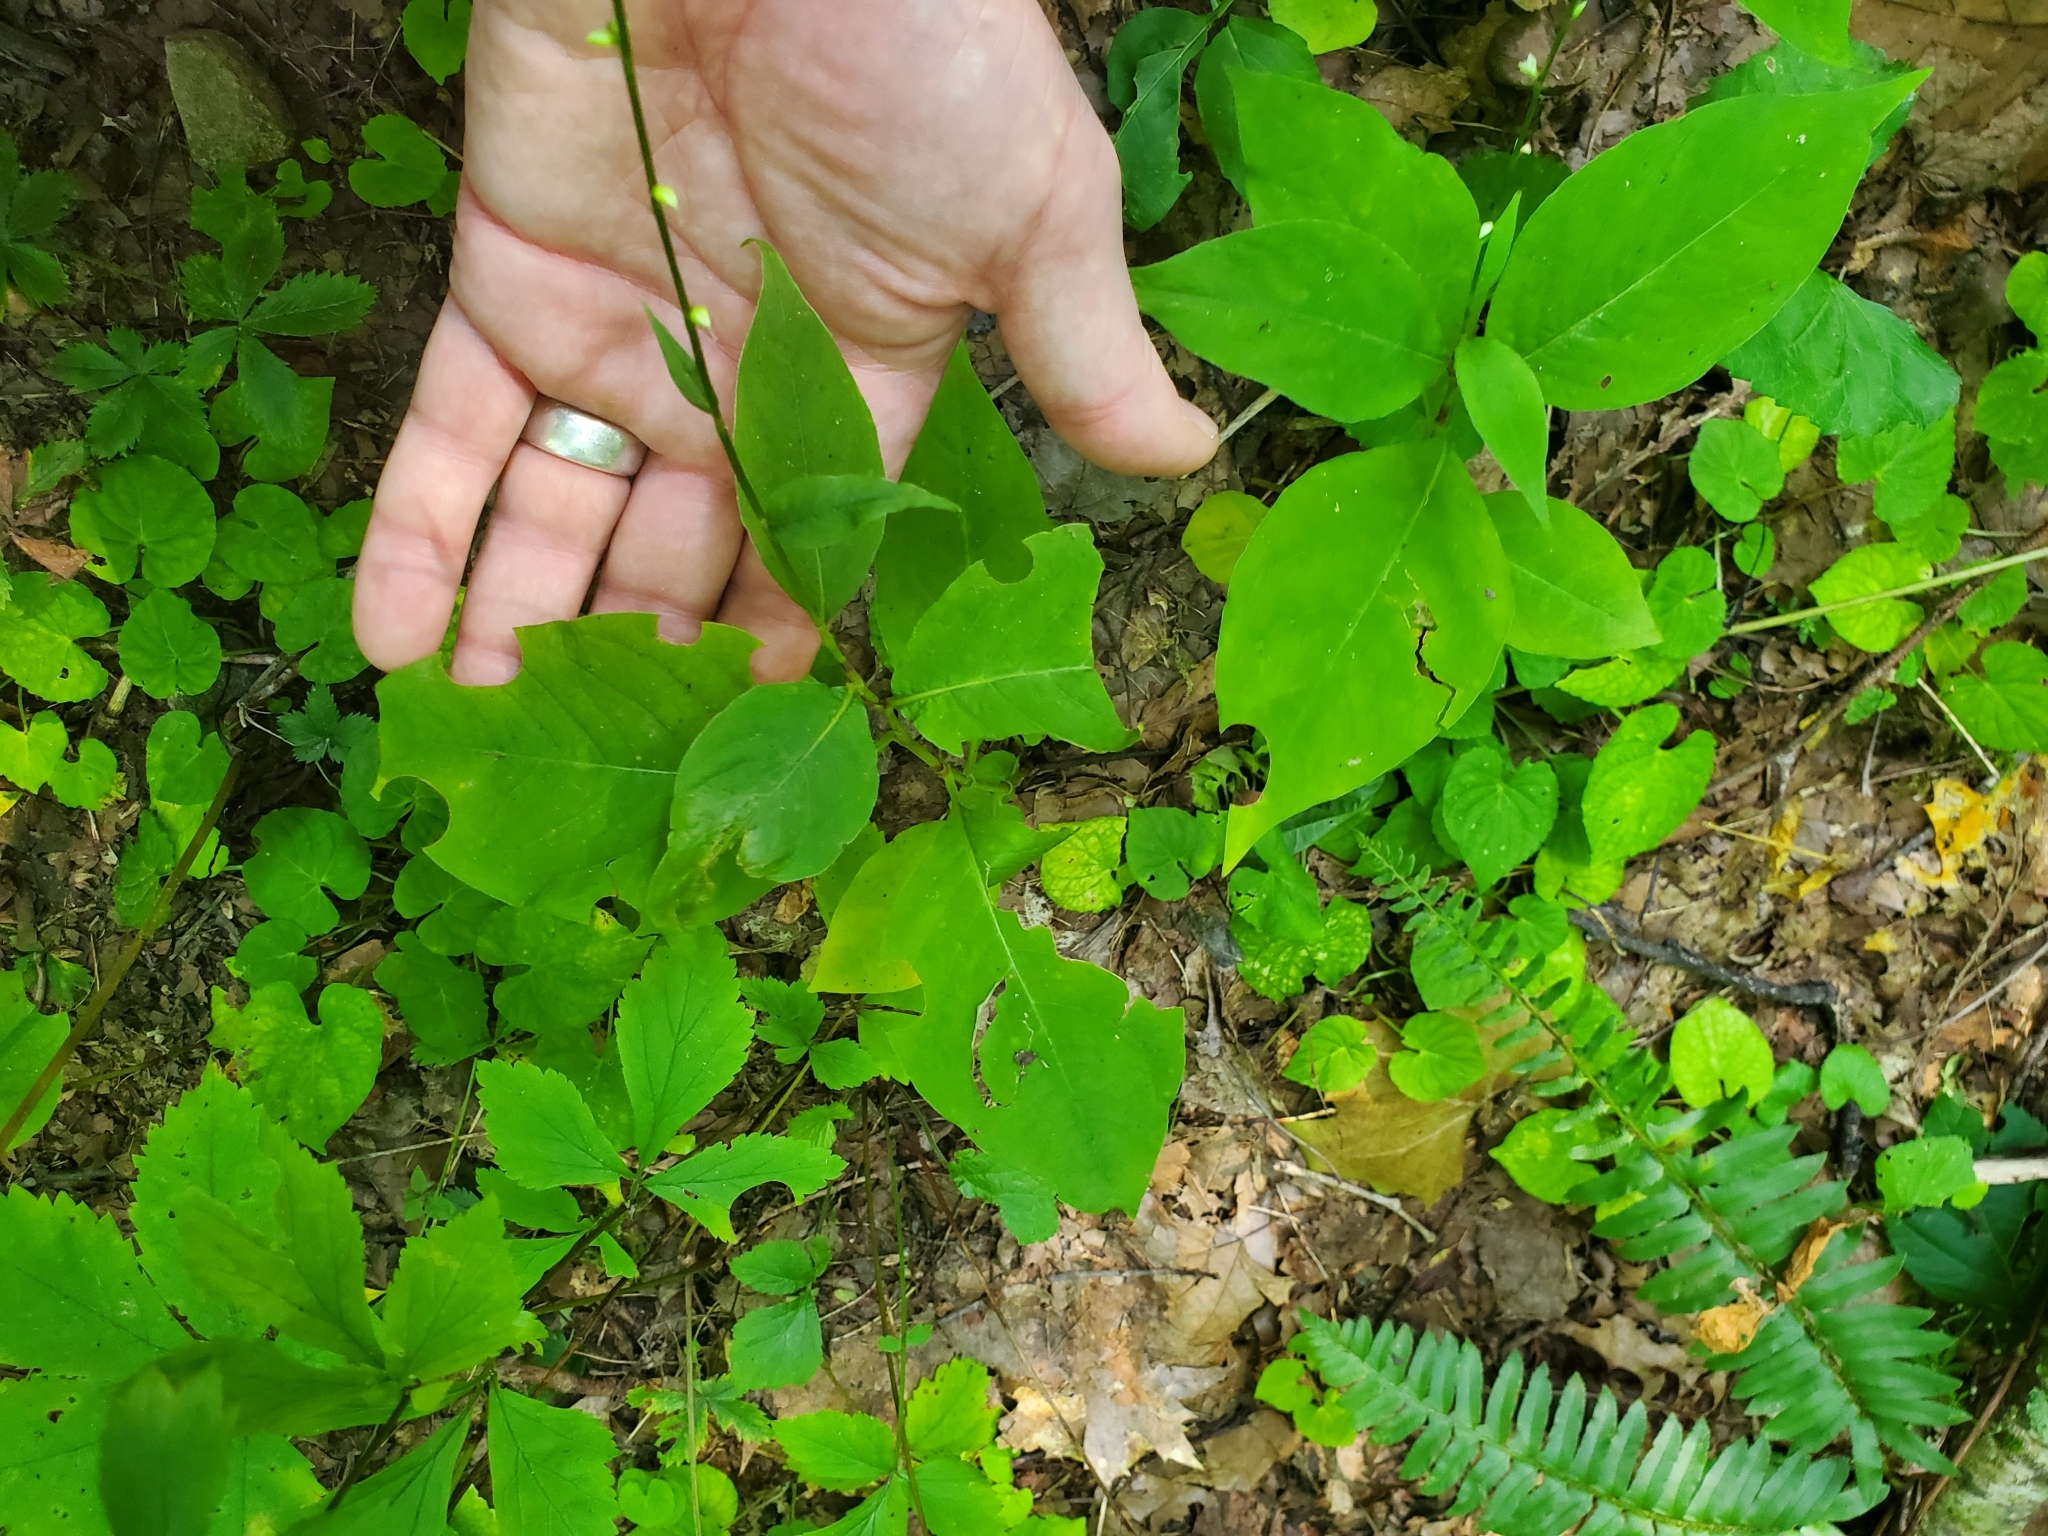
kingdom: Plantae
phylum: Tracheophyta
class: Magnoliopsida
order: Caryophyllales
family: Polygonaceae
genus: Persicaria
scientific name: Persicaria virginiana
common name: Jumpseed
